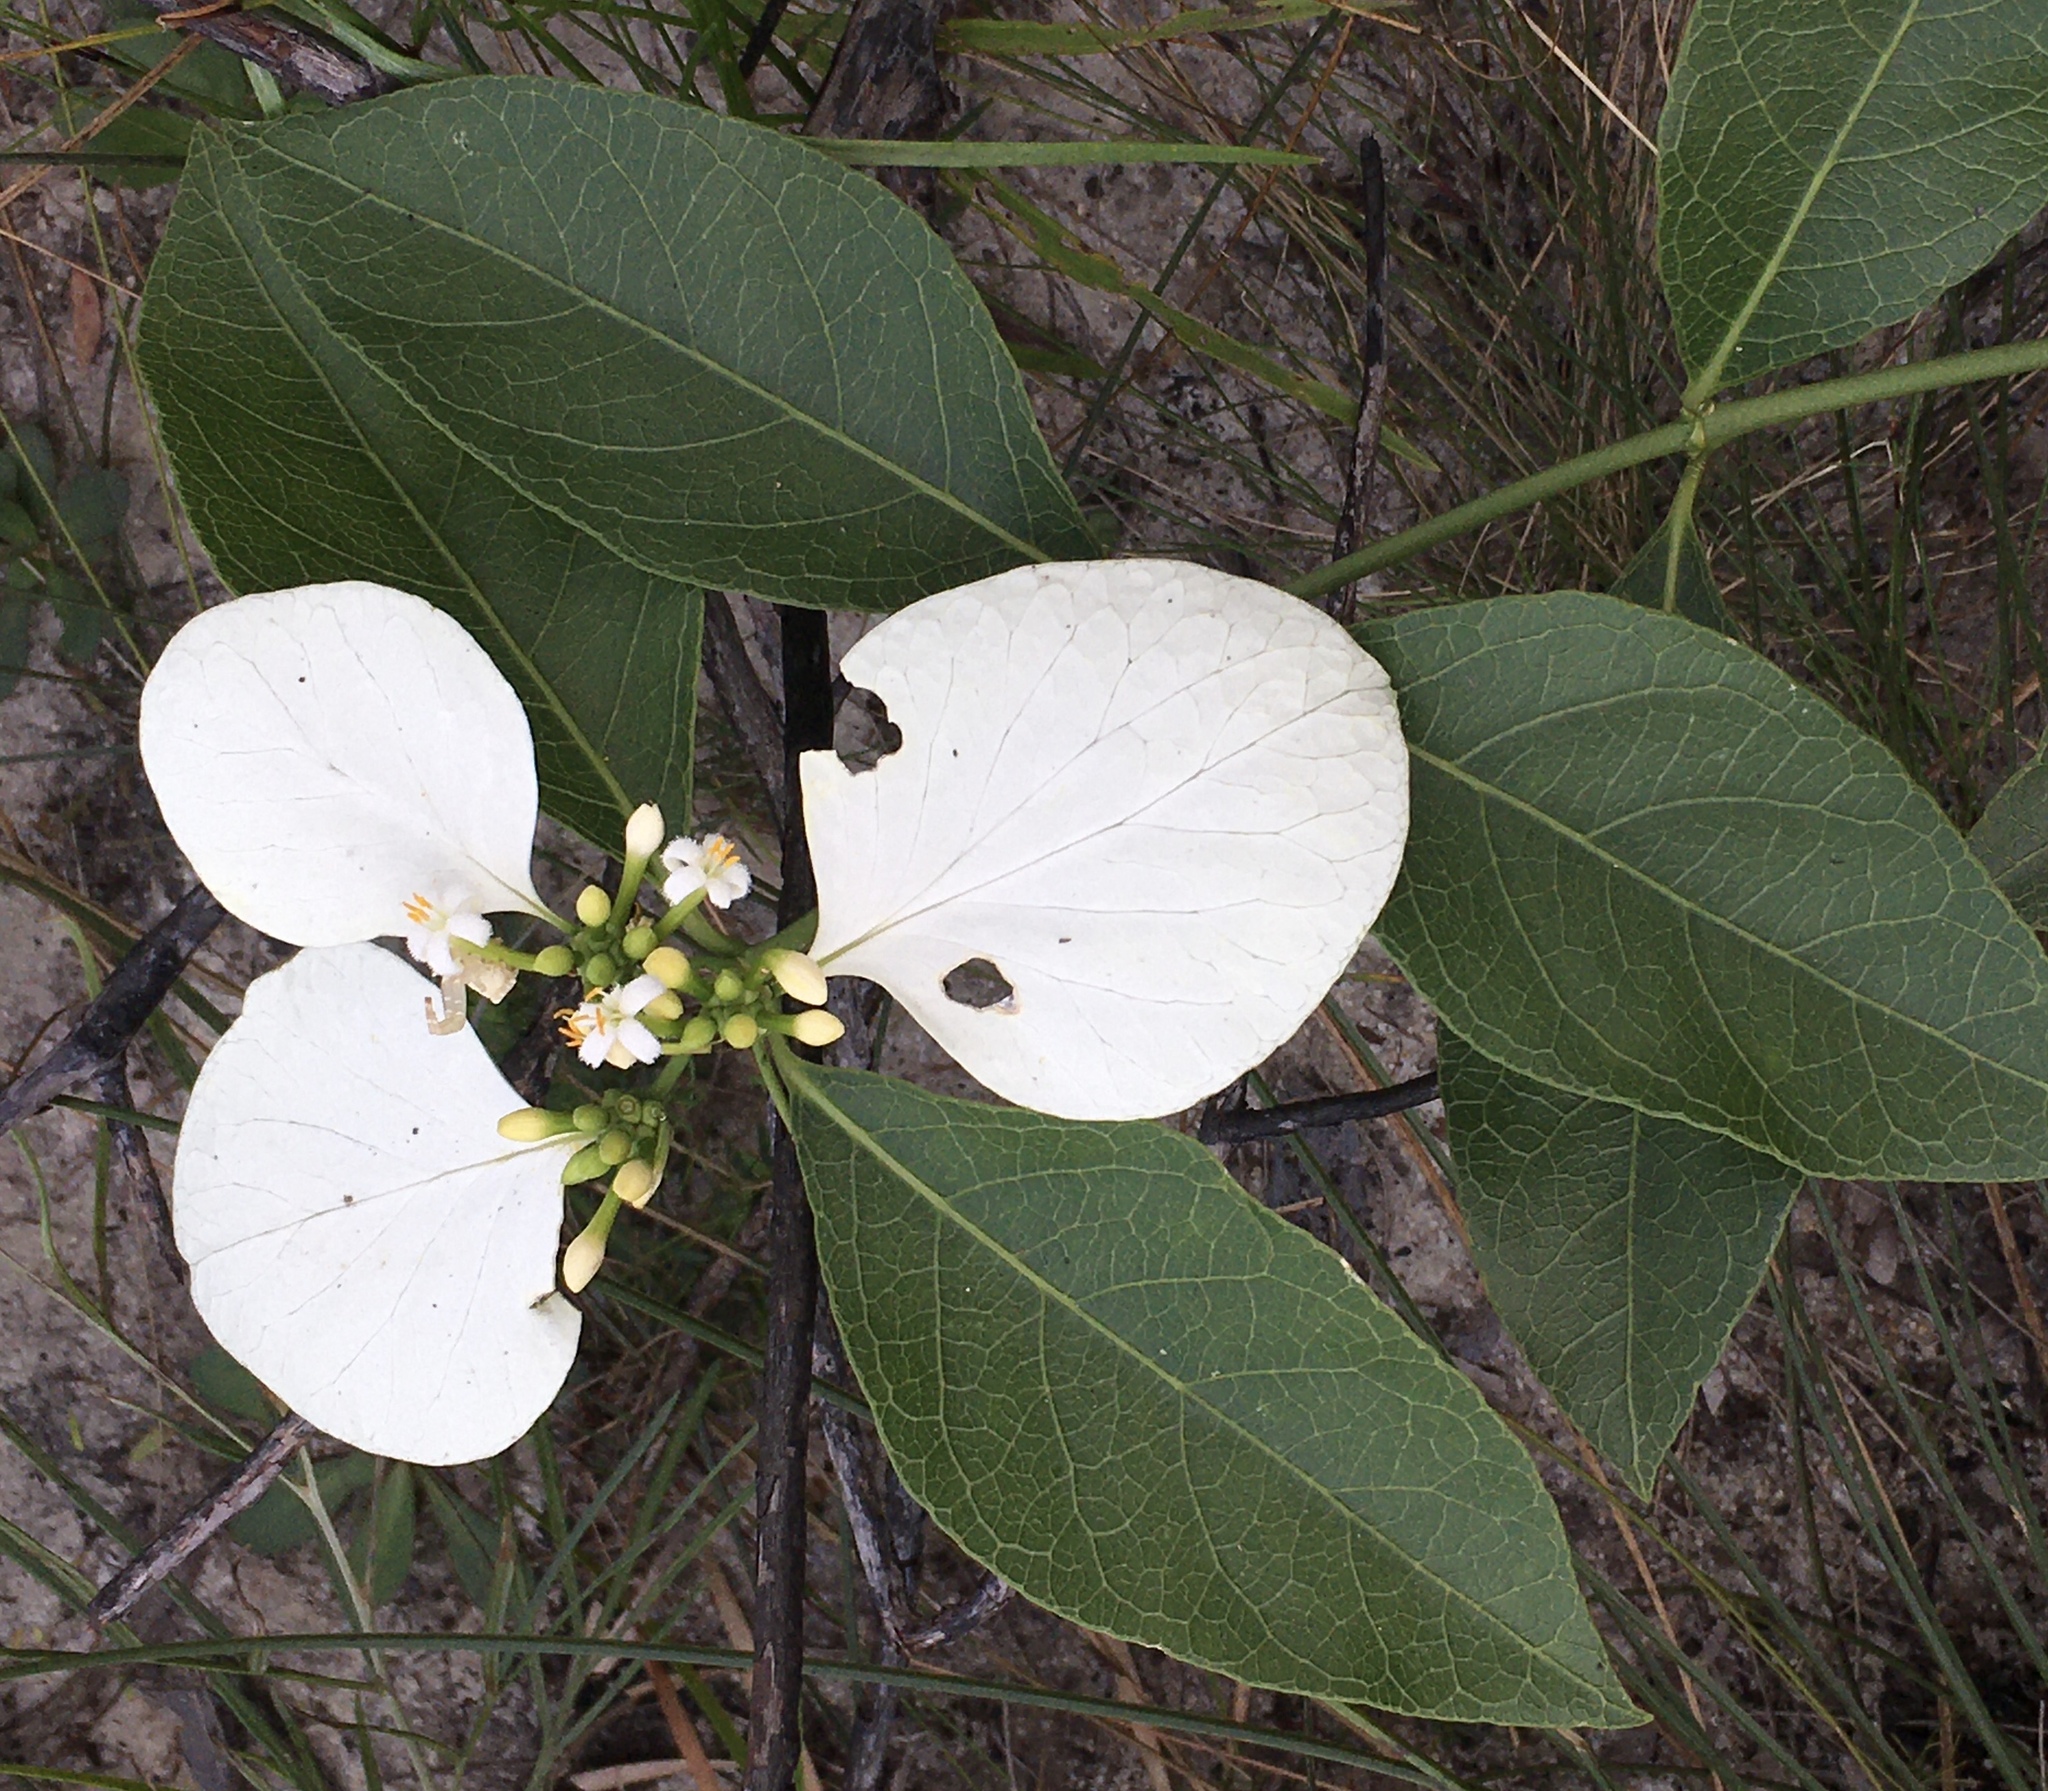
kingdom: Plantae
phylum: Tracheophyta
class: Magnoliopsida
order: Gentianales
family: Rubiaceae
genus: Coelospermum
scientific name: Coelospermum decipiens
